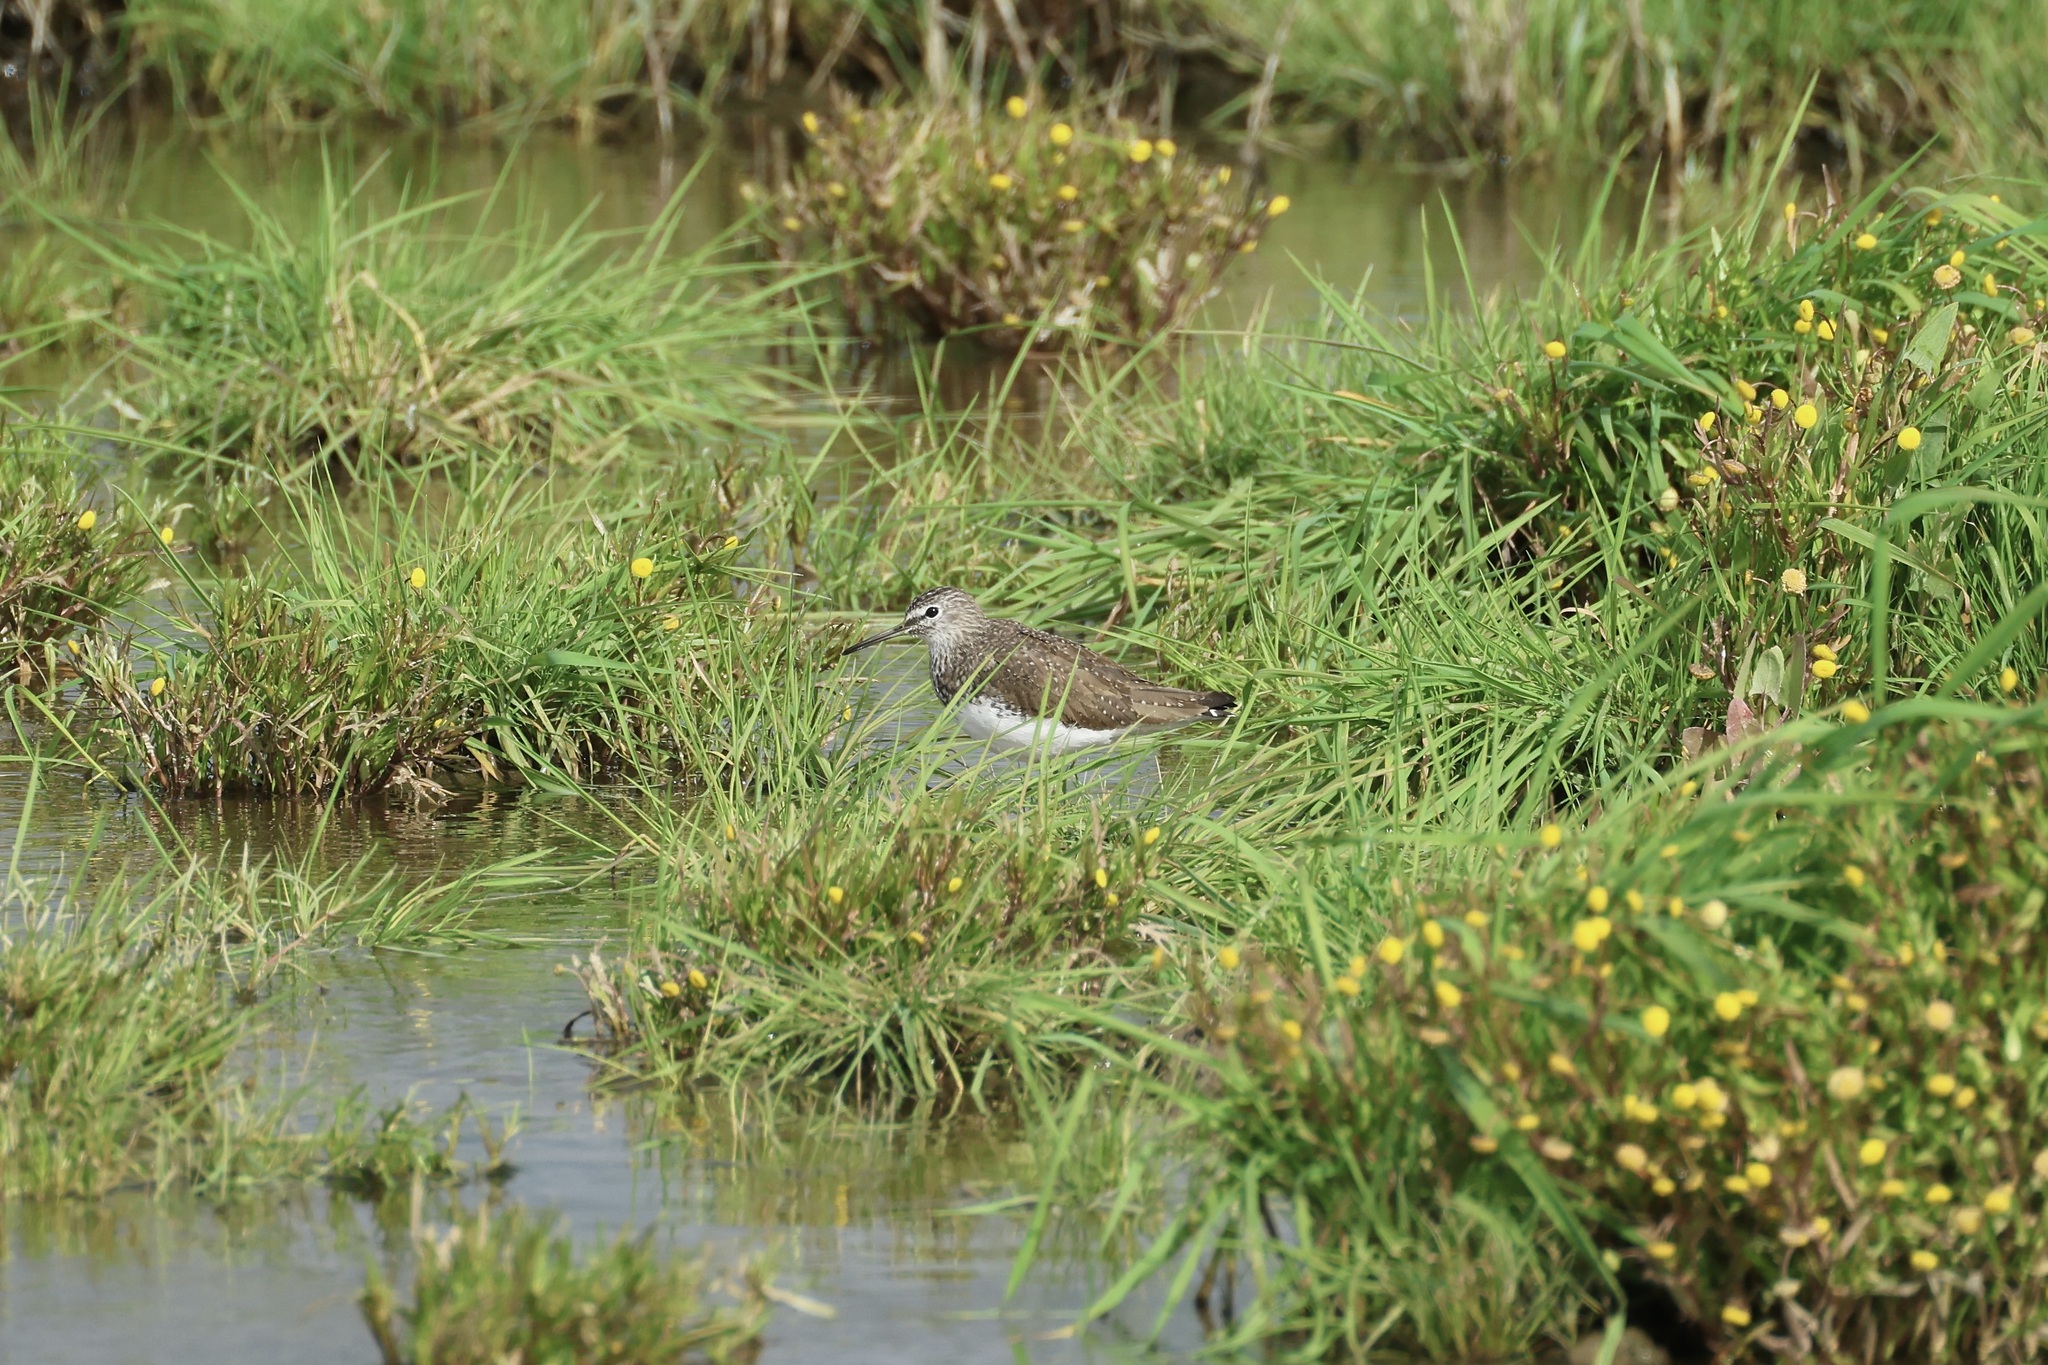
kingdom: Animalia
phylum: Chordata
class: Aves
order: Charadriiformes
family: Scolopacidae
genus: Tringa
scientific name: Tringa ochropus
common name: Green sandpiper
